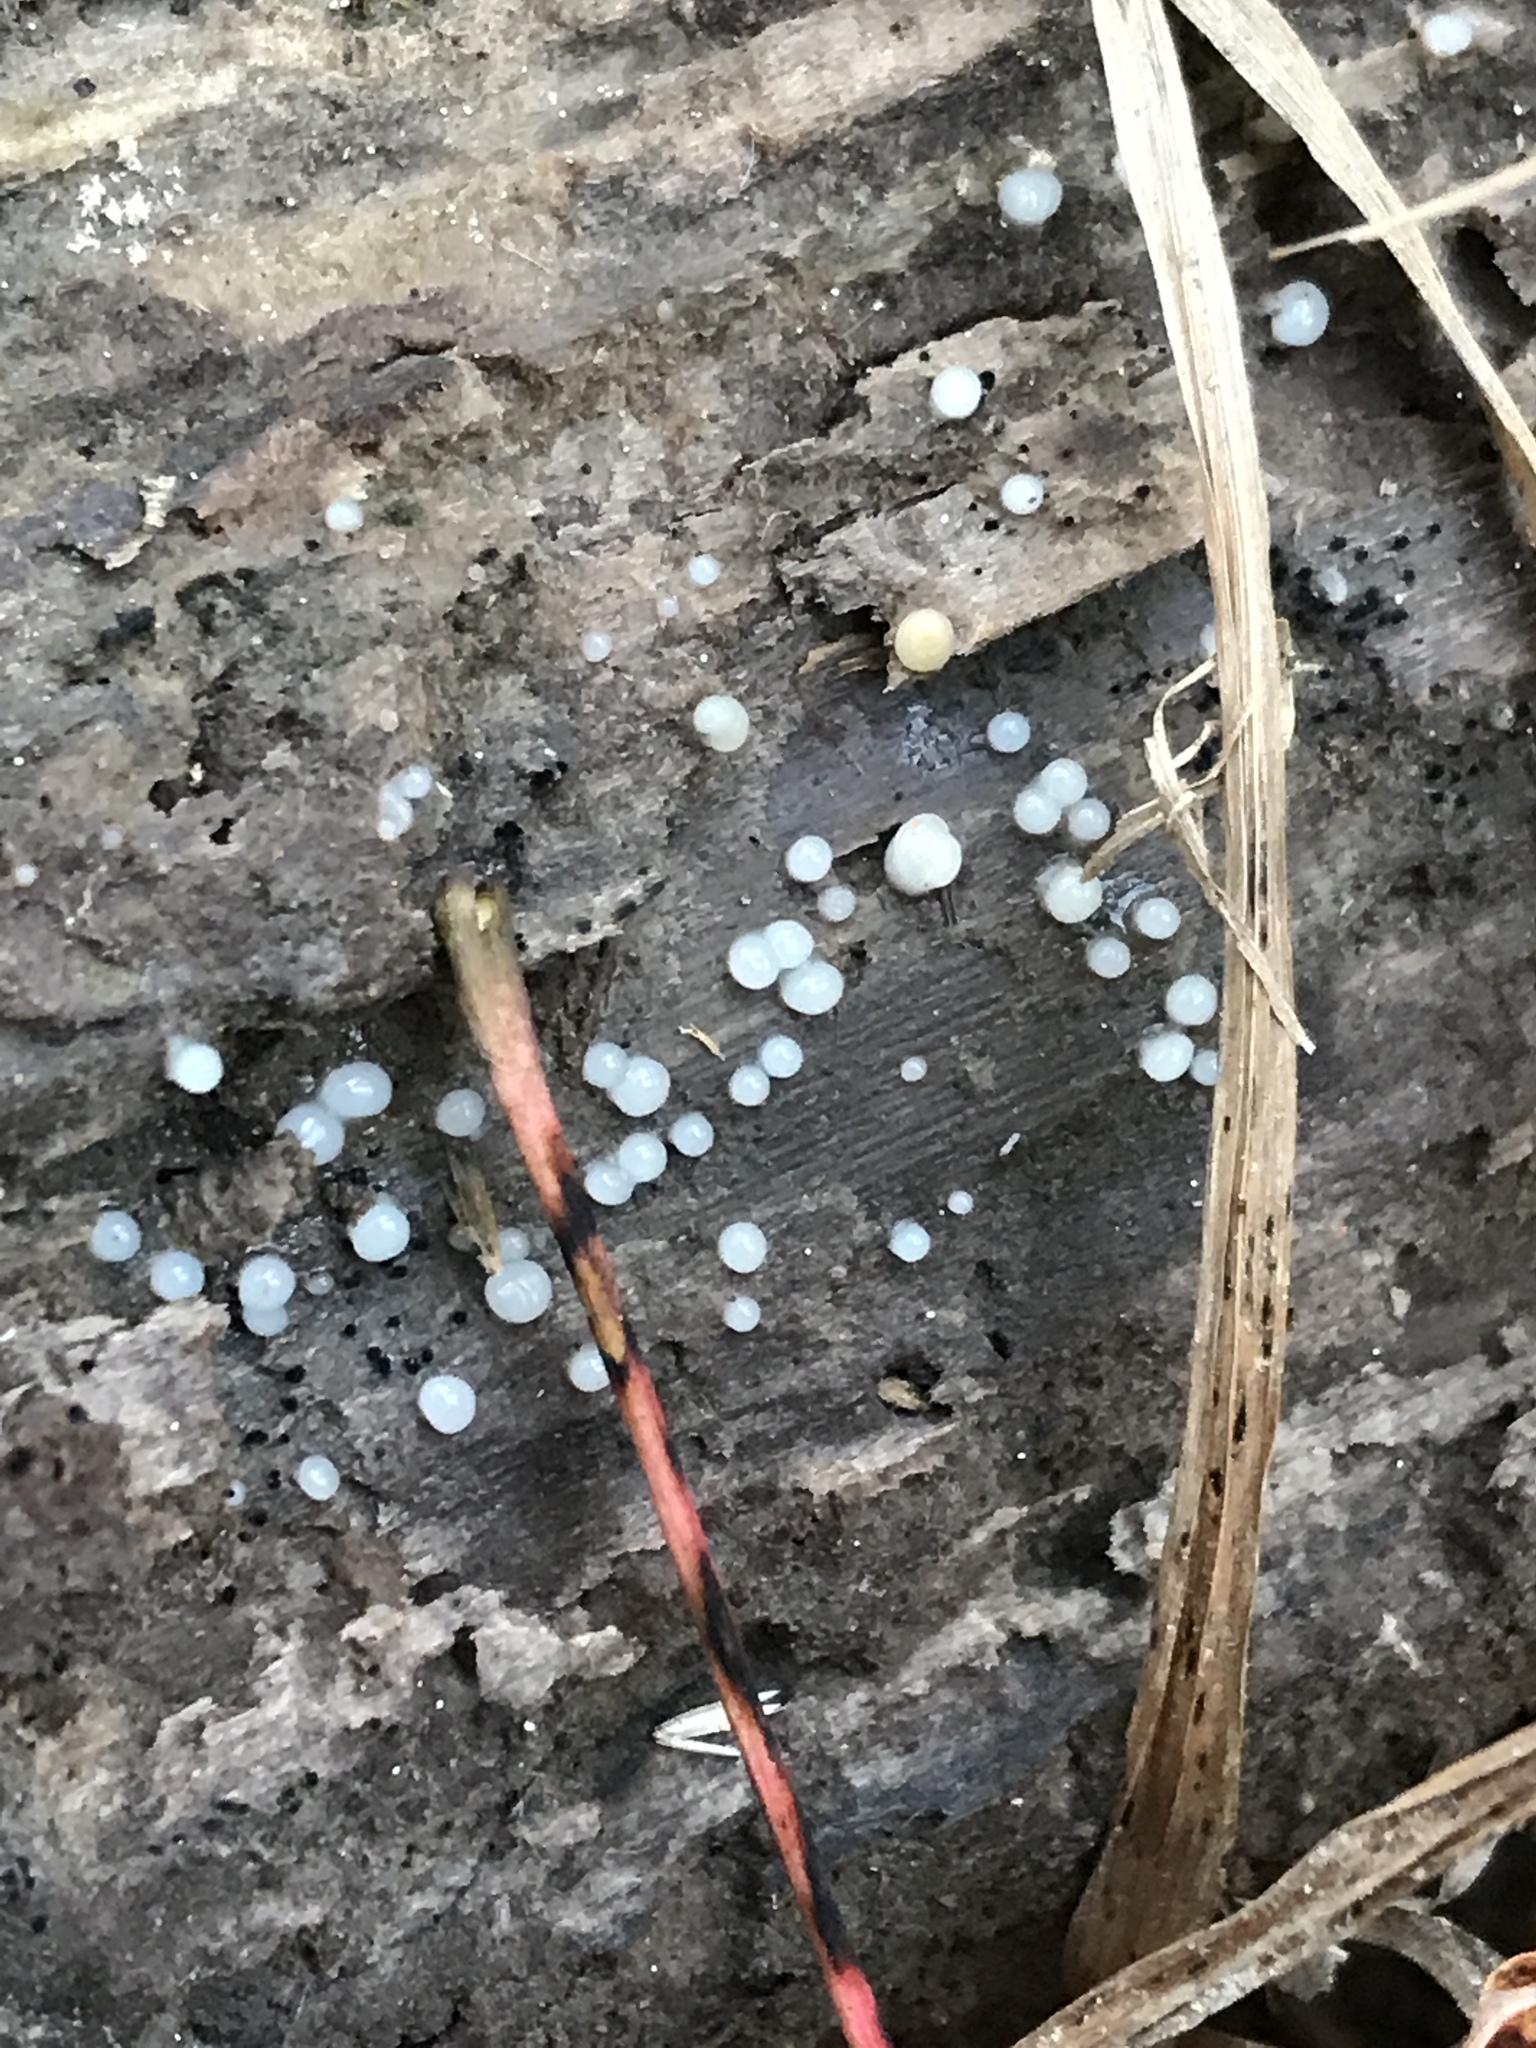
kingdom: Fungi
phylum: Basidiomycota
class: Atractiellomycetes
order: Atractiellales
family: Phleogenaceae
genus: Helicogloea
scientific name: Helicogloea compressa
